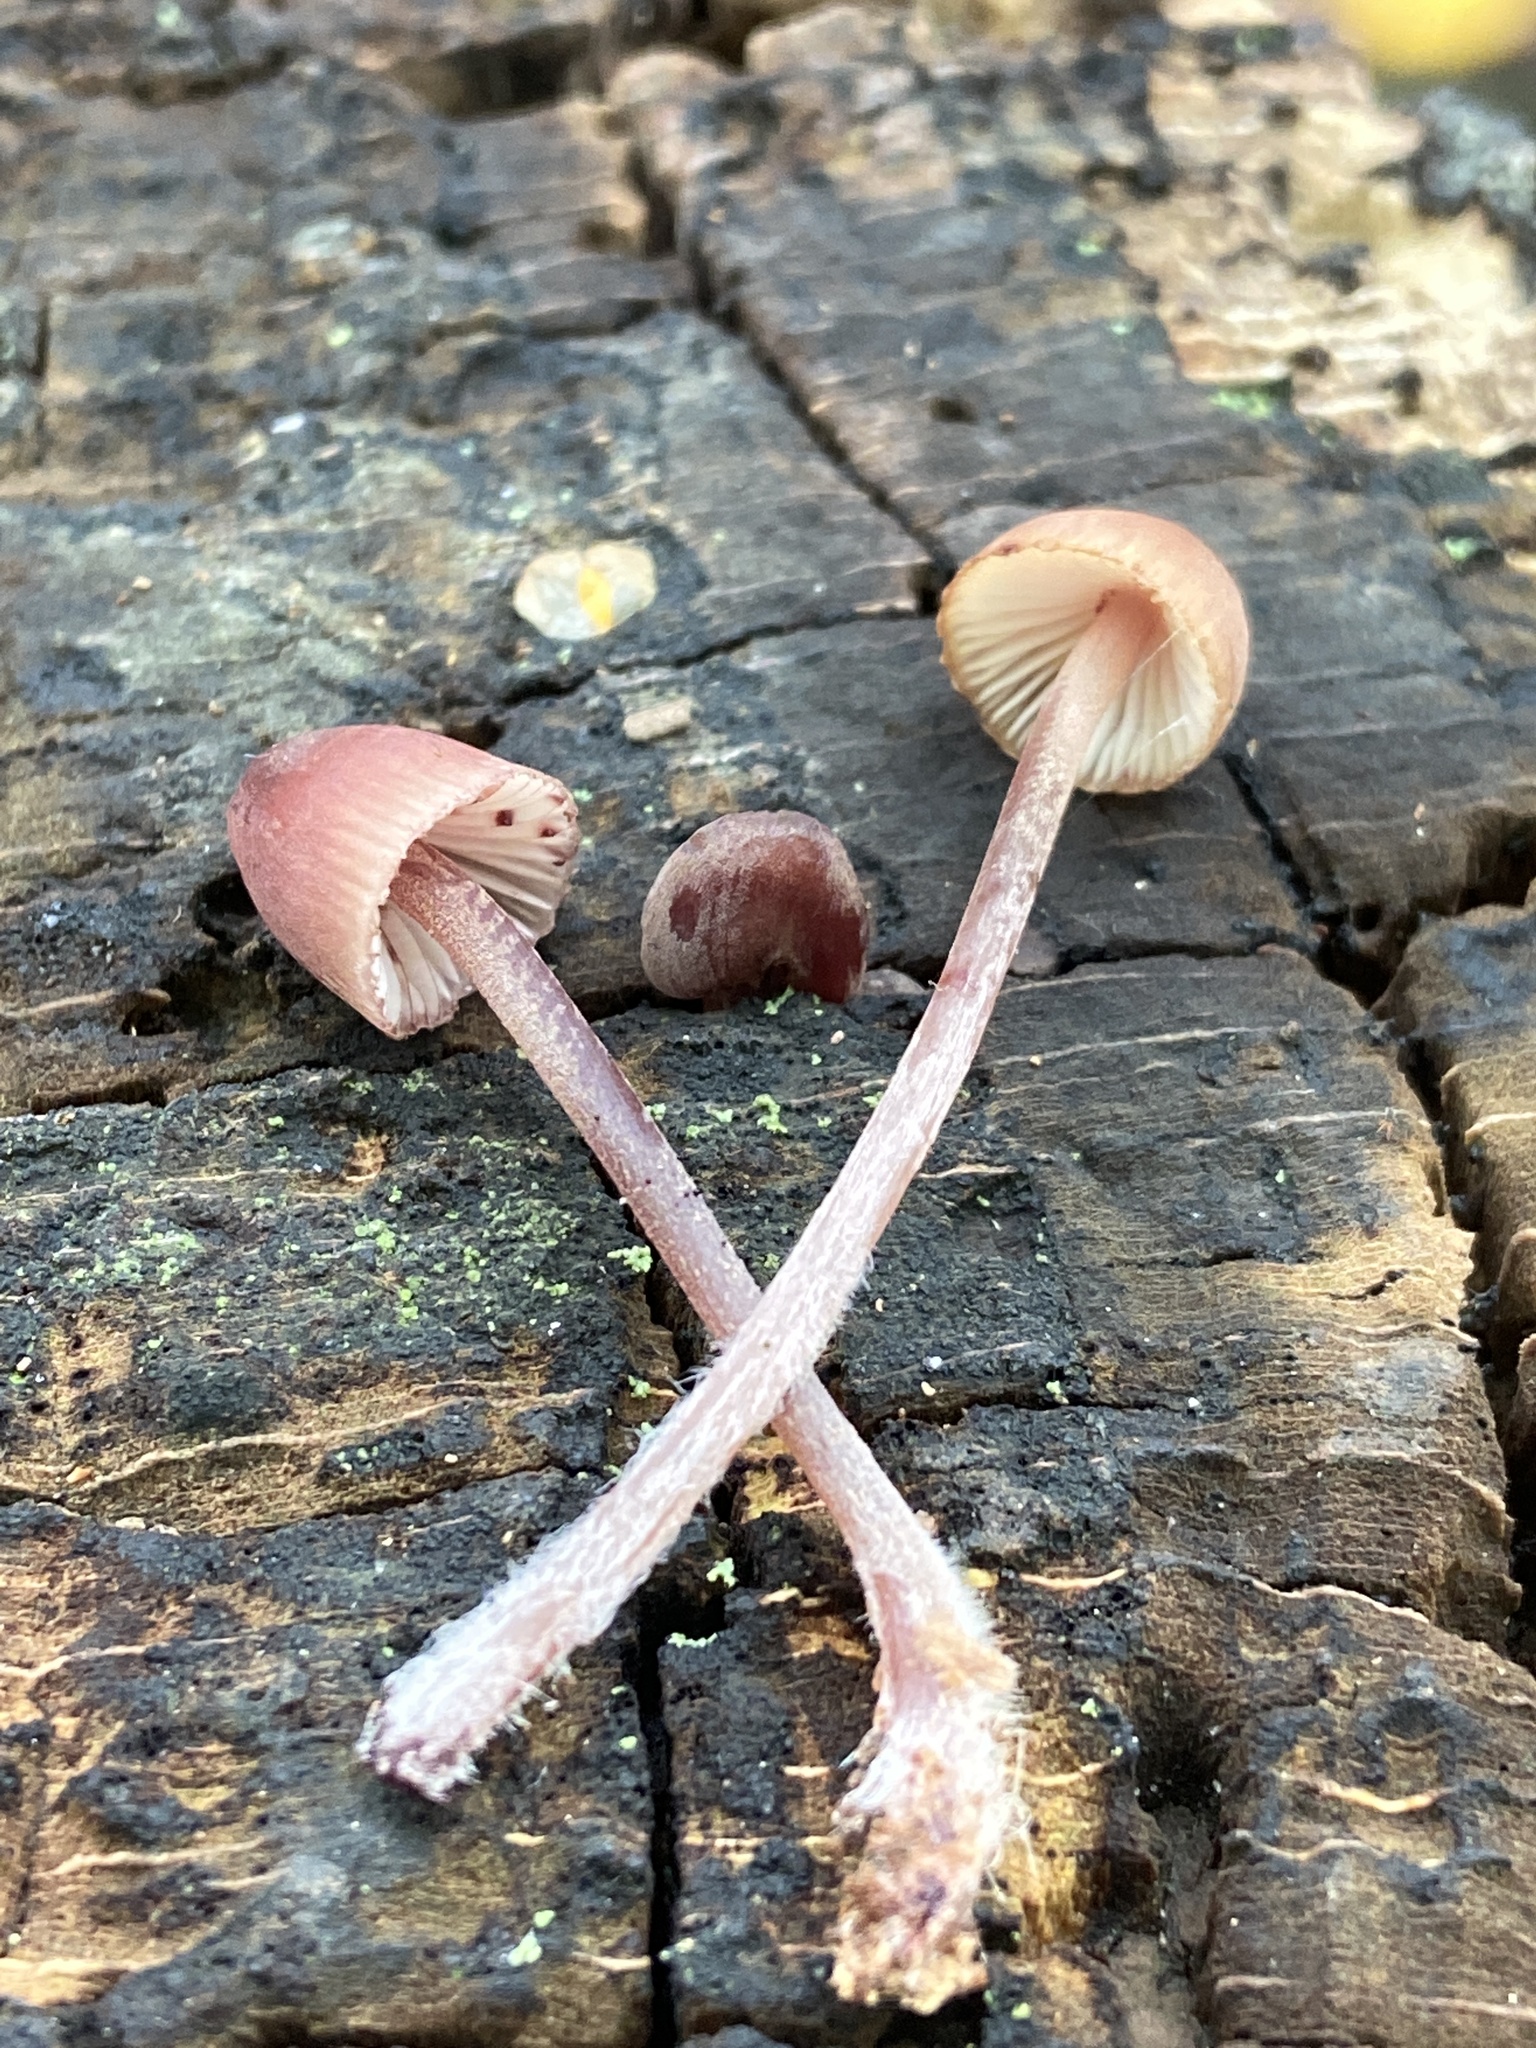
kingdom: Fungi
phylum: Basidiomycota
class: Agaricomycetes
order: Agaricales
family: Mycenaceae
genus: Mycena
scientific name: Mycena haematopus
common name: Burgundydrop bonnet
